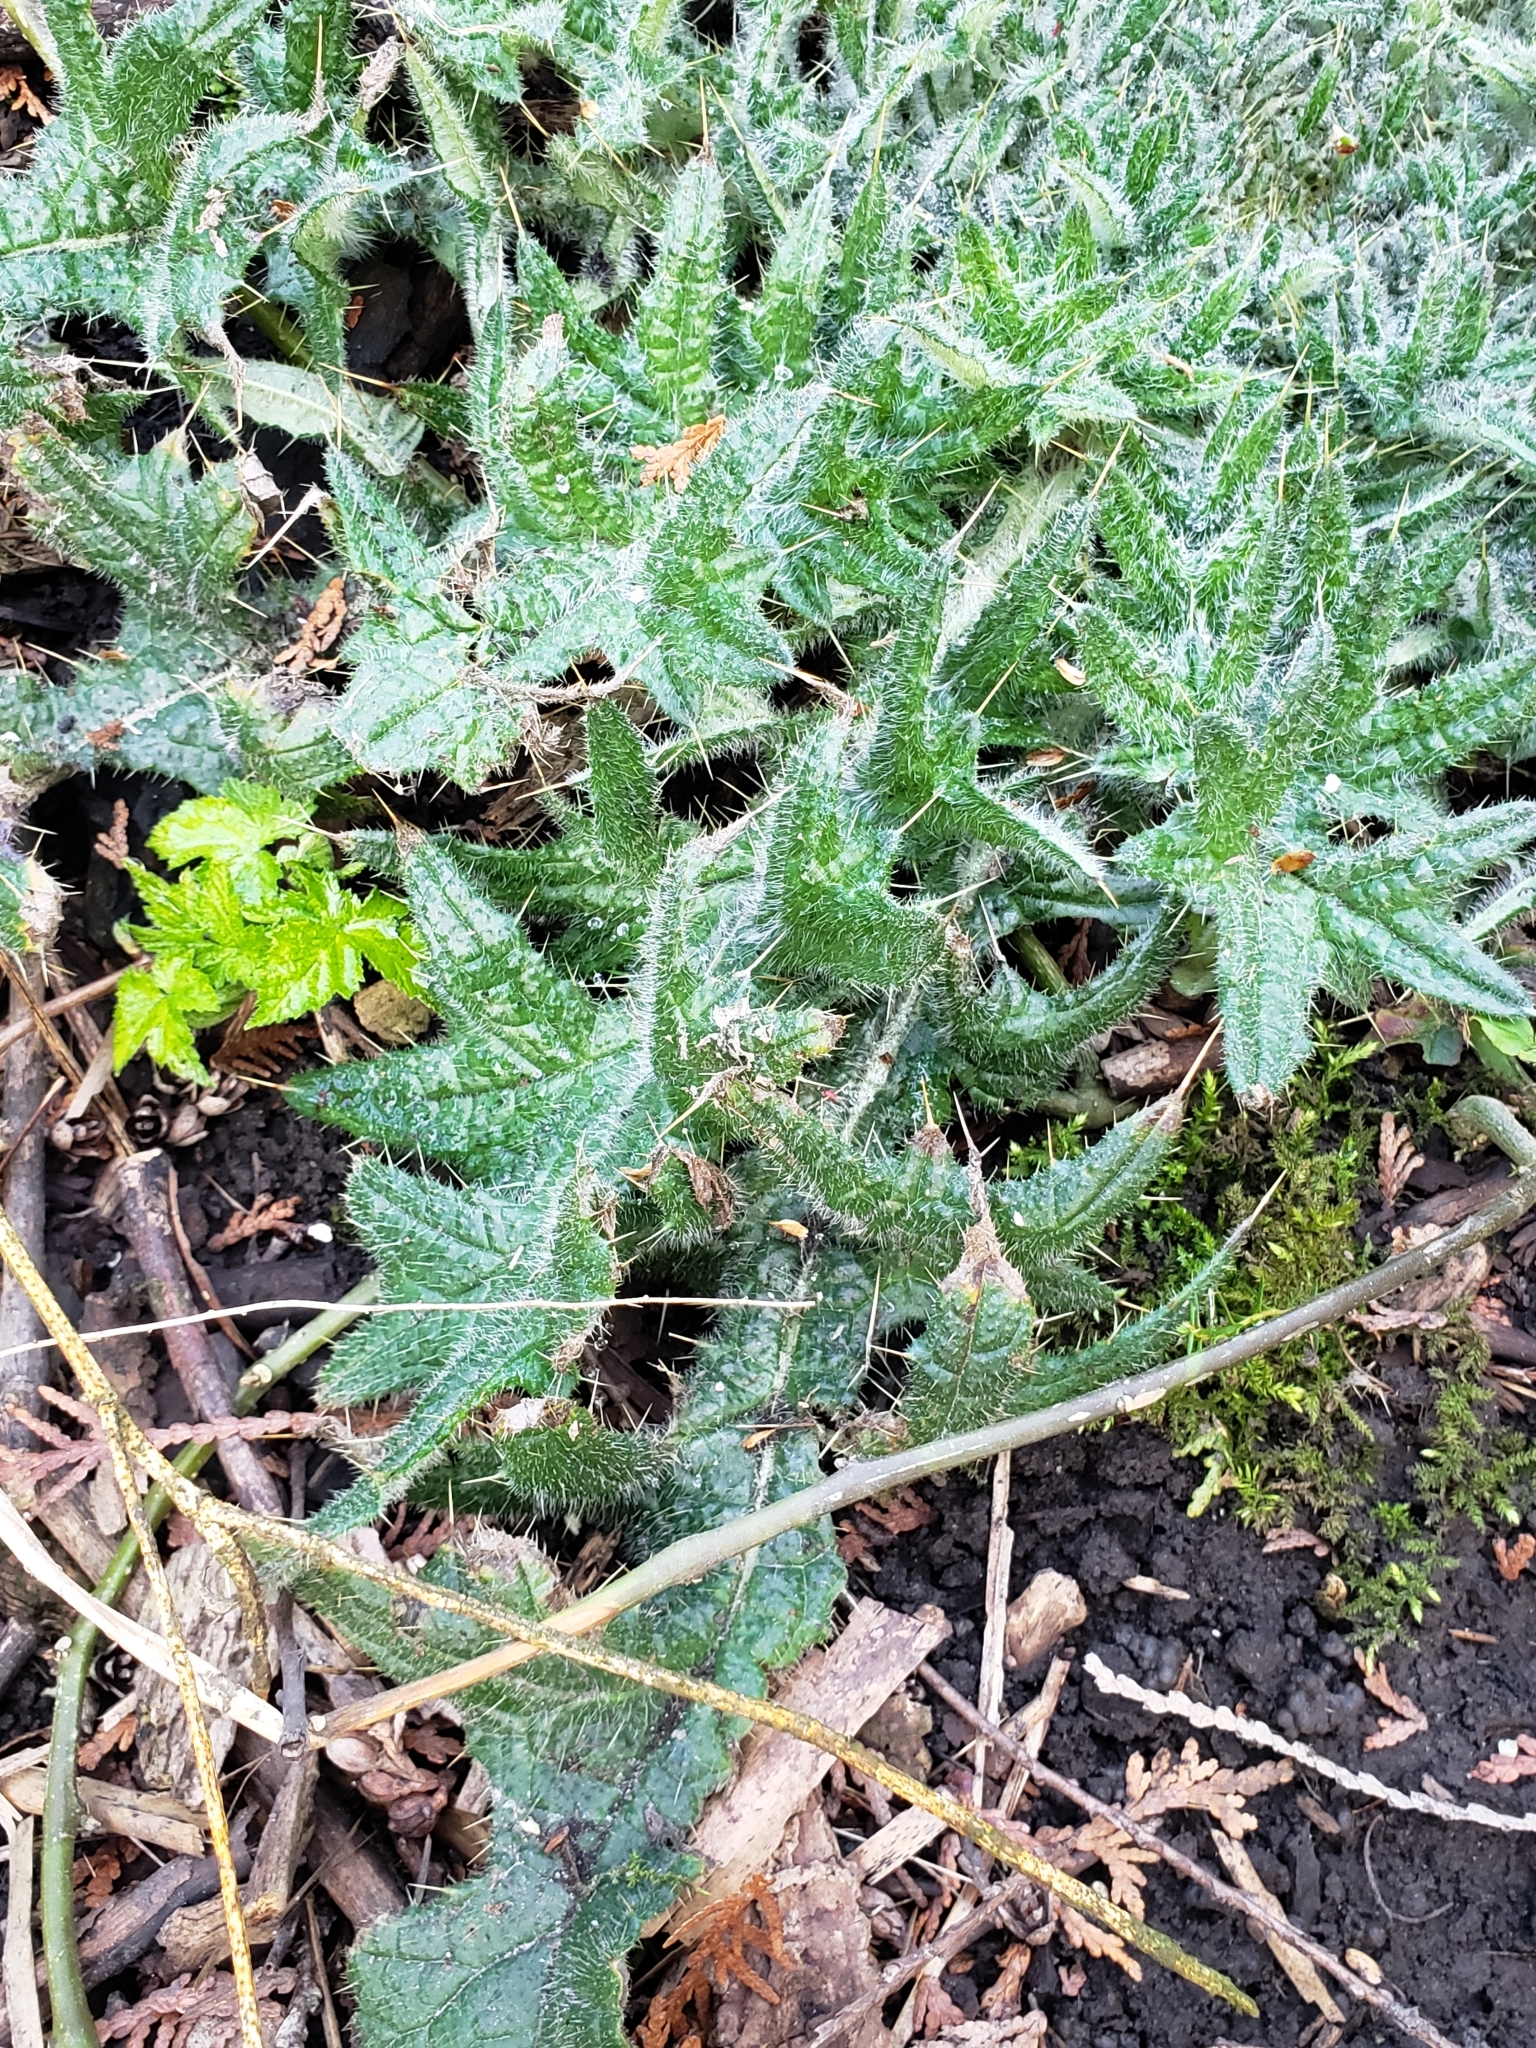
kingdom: Plantae
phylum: Tracheophyta
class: Magnoliopsida
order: Asterales
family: Asteraceae
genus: Cirsium
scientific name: Cirsium vulgare
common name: Bull thistle
